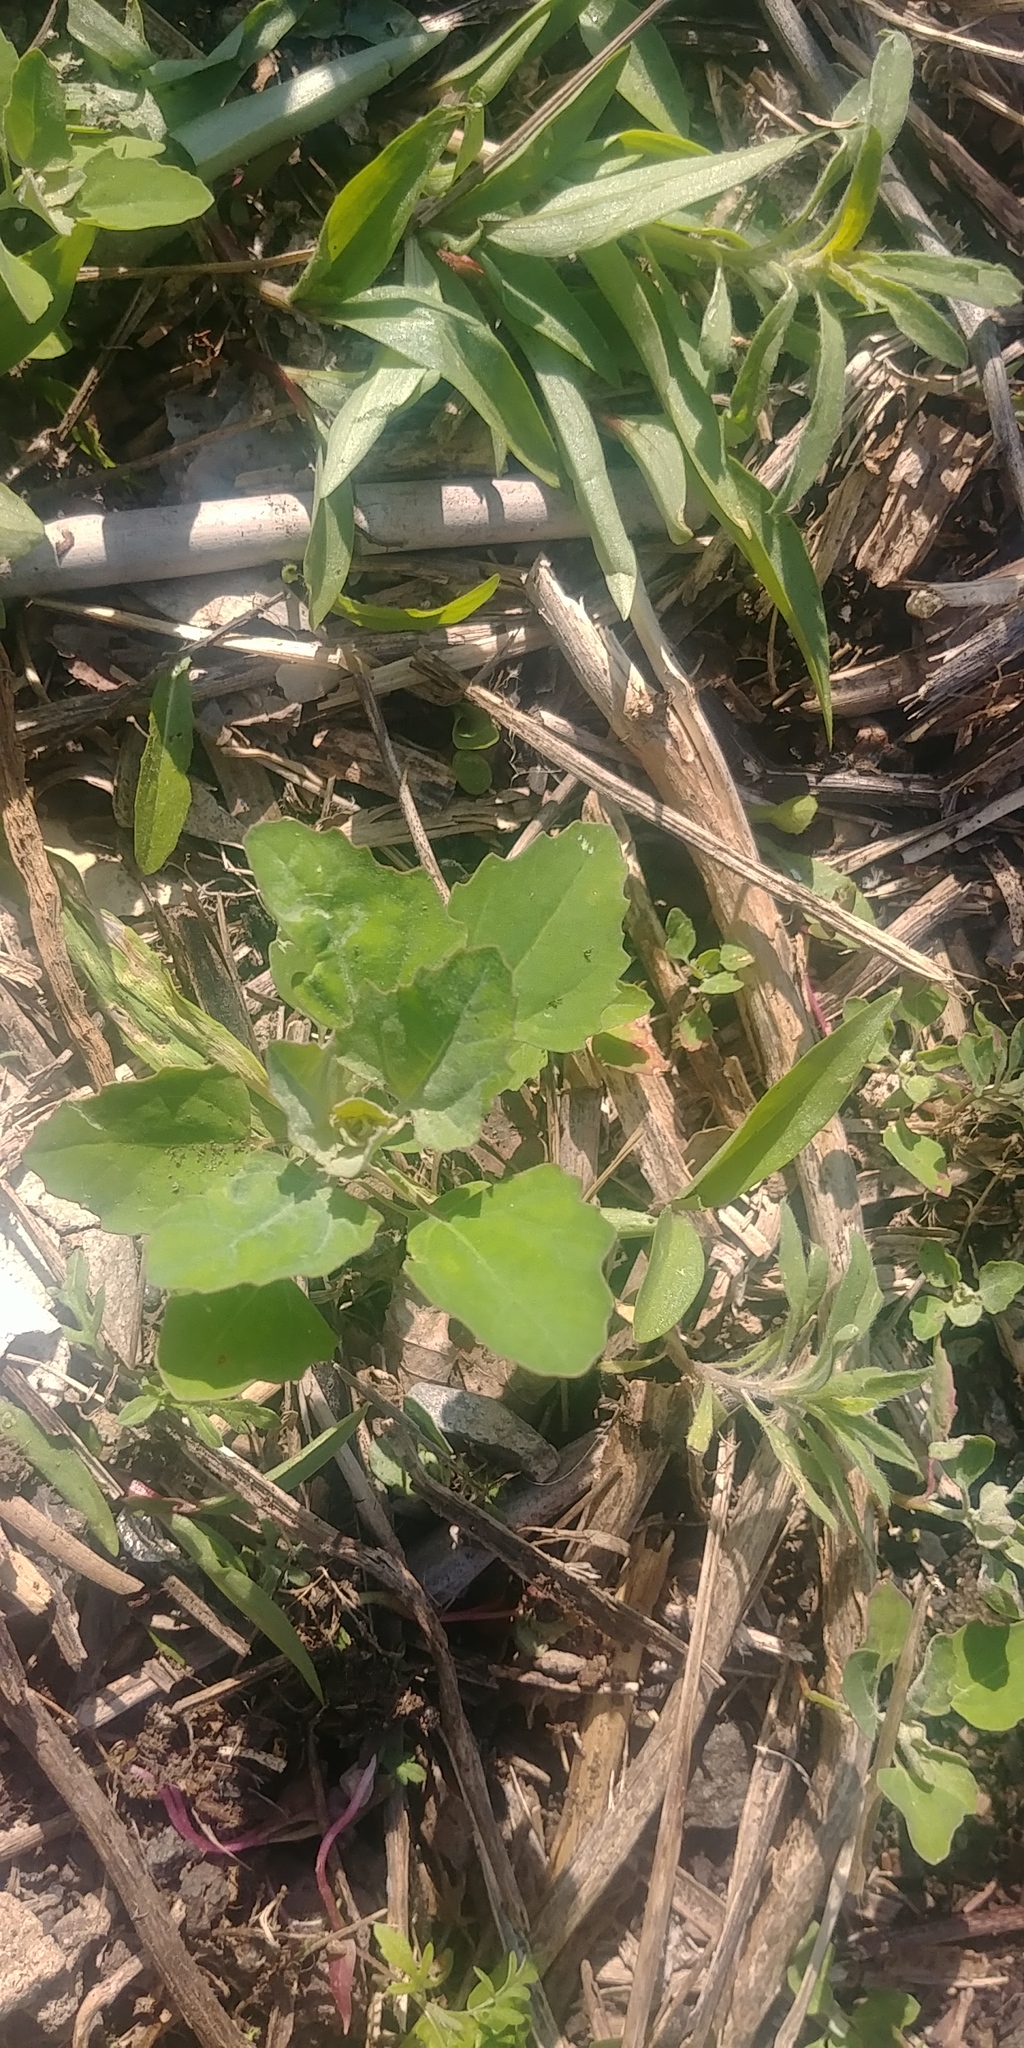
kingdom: Plantae
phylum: Tracheophyta
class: Magnoliopsida
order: Caryophyllales
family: Amaranthaceae
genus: Chenopodium
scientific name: Chenopodium album
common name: Fat-hen
